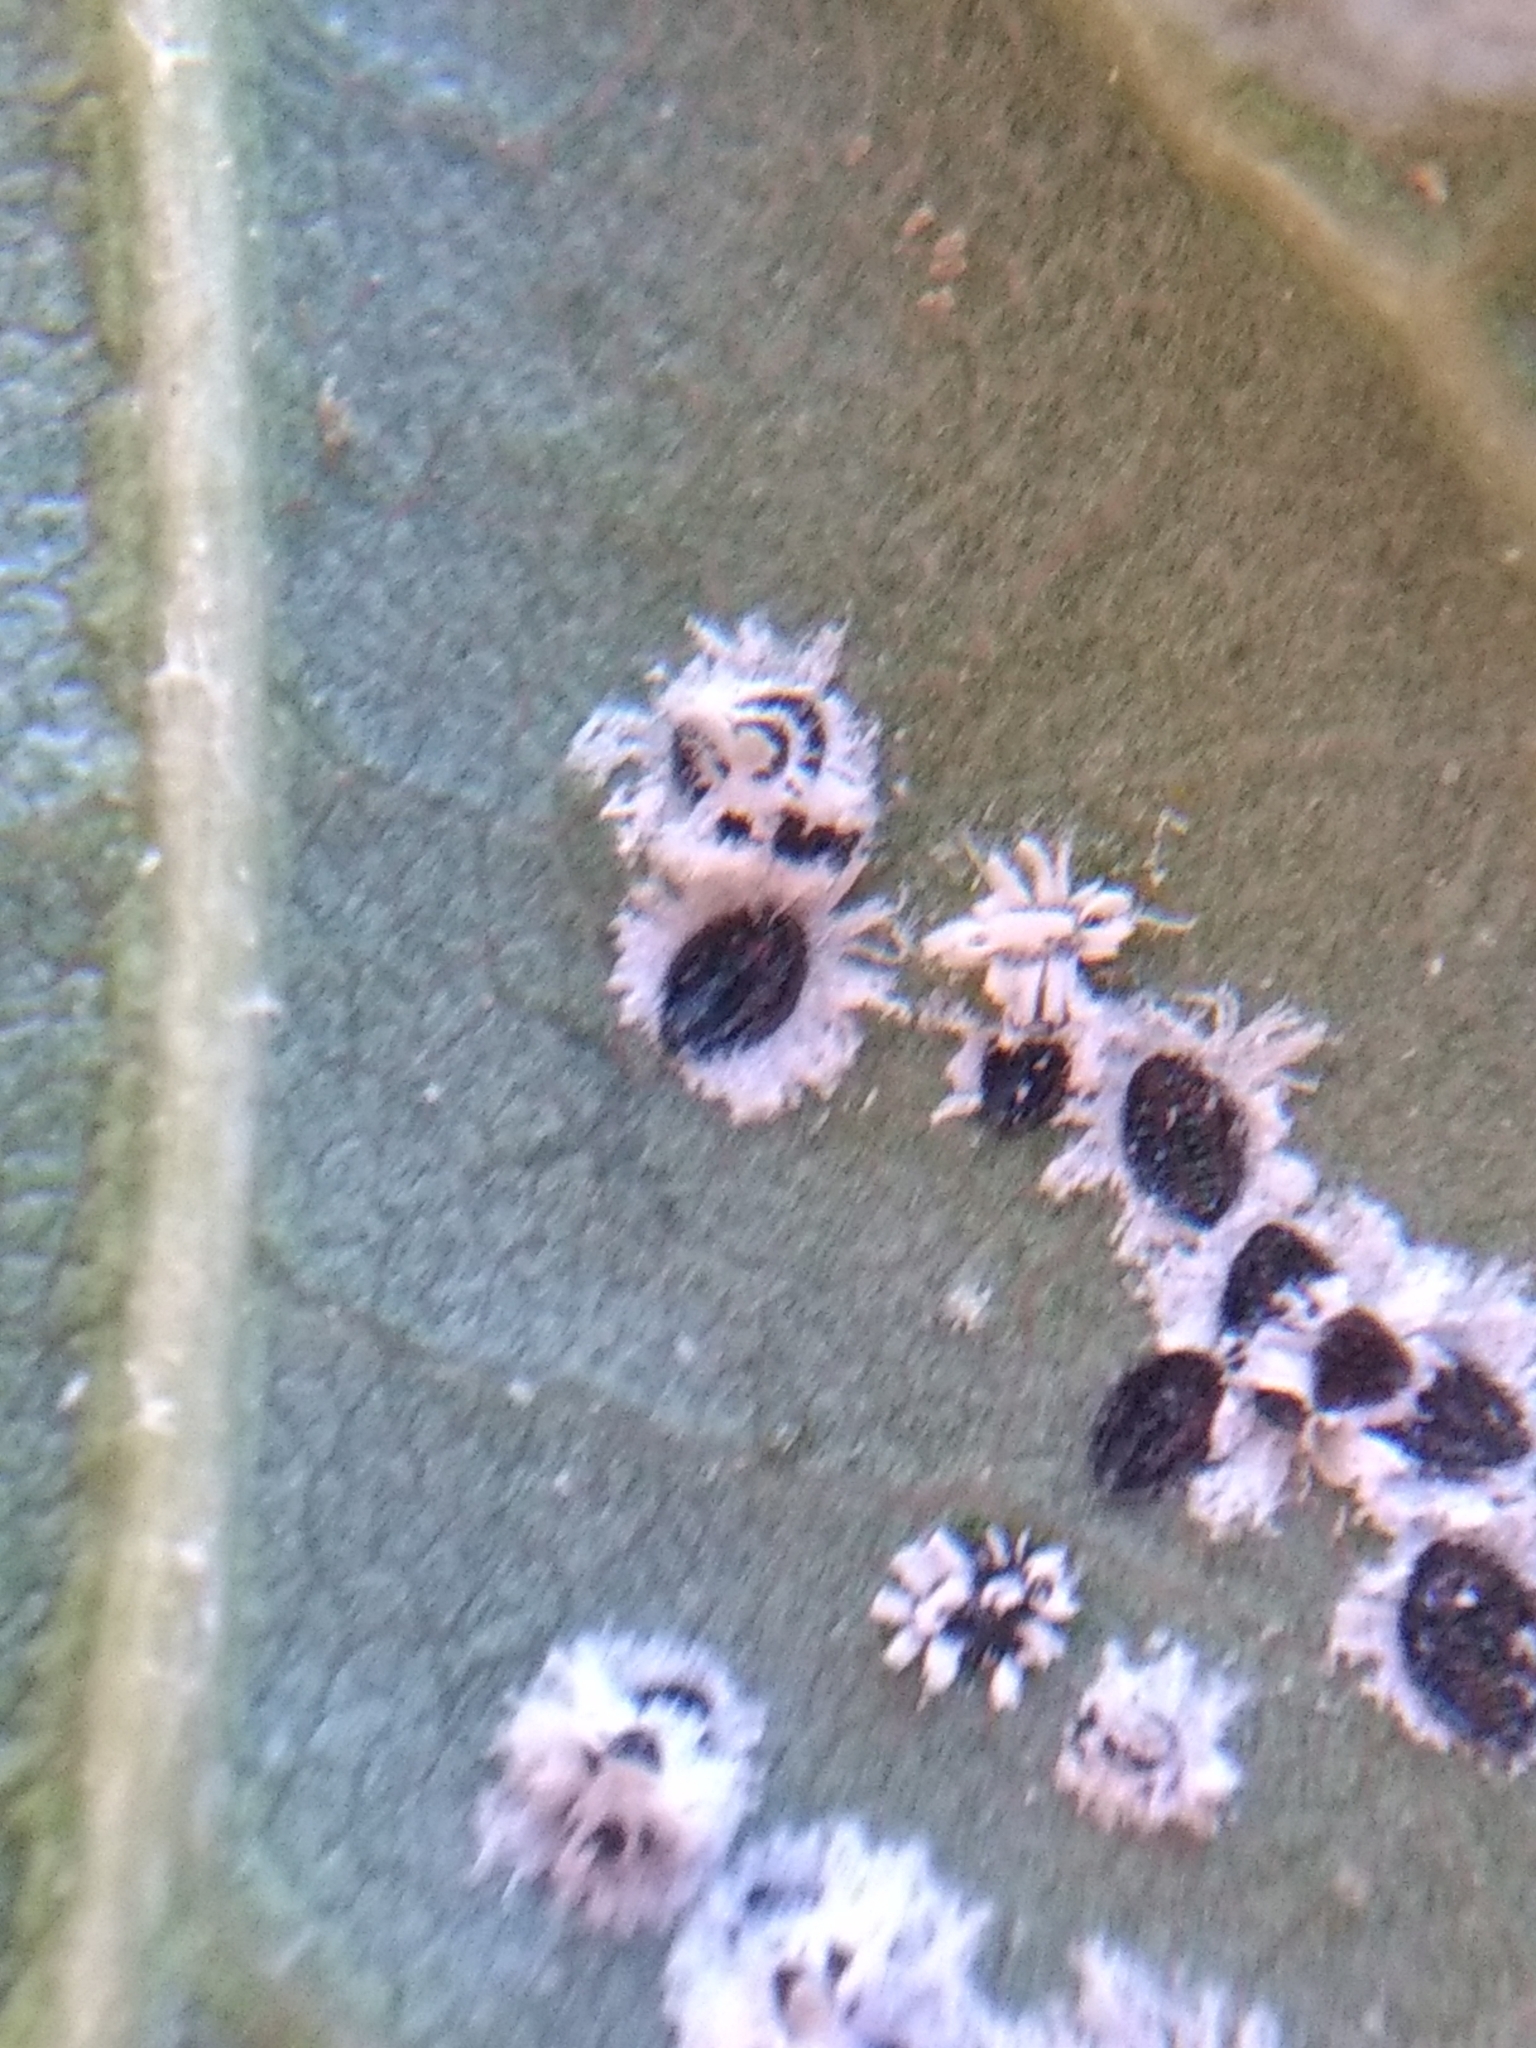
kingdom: Animalia
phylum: Arthropoda
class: Insecta
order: Hemiptera
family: Aleyrodidae
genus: Aleuroplatus
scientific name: Aleuroplatus coronata
